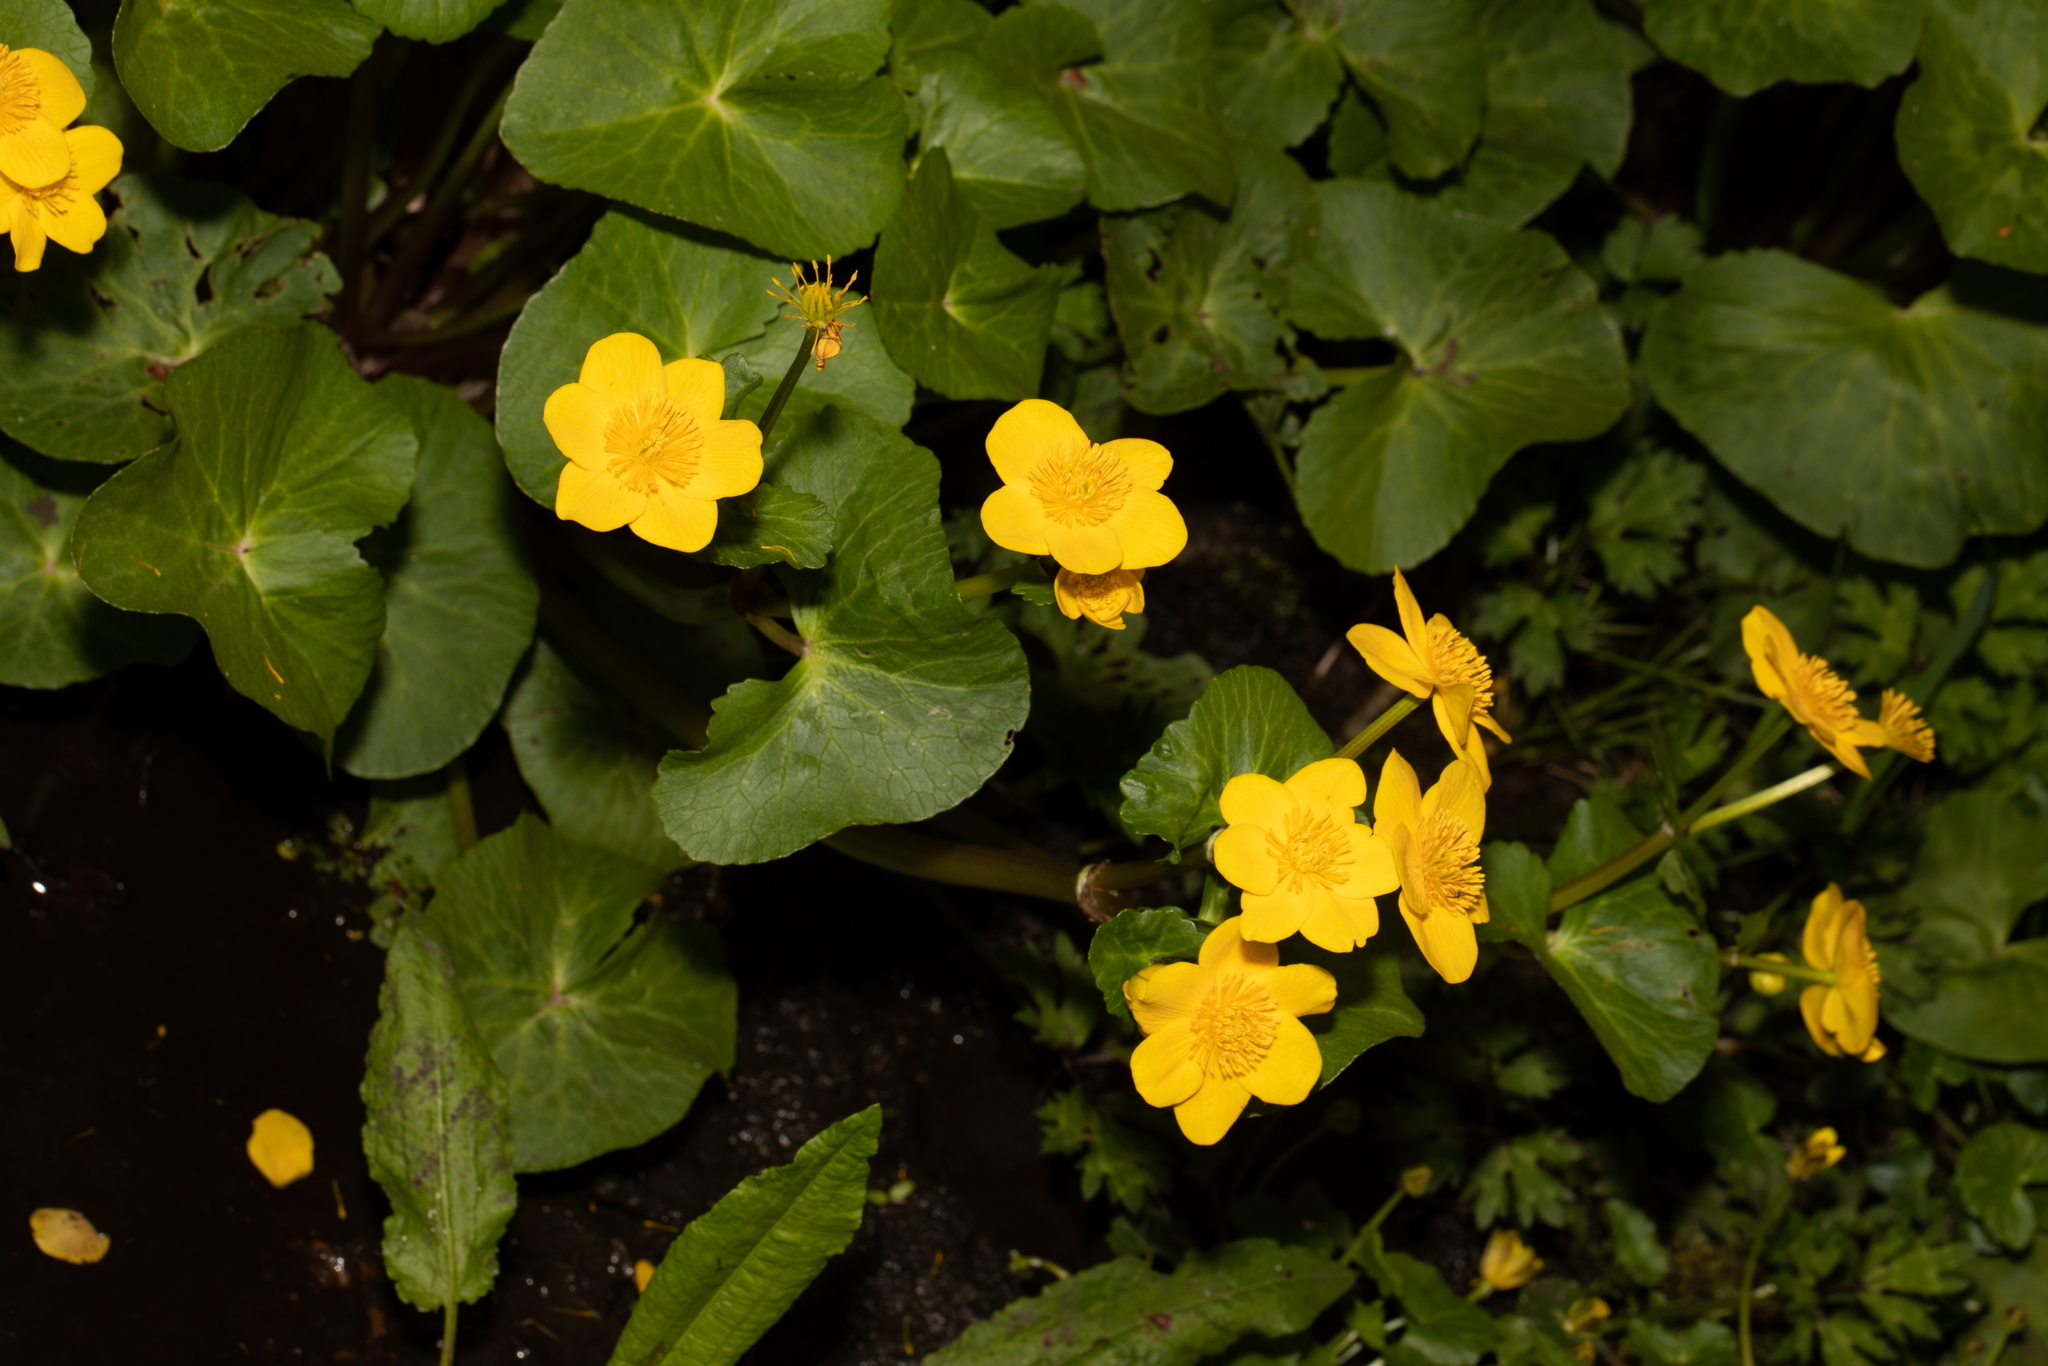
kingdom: Plantae
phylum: Tracheophyta
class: Magnoliopsida
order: Ranunculales
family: Ranunculaceae
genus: Caltha
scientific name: Caltha palustris
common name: Marsh marigold
